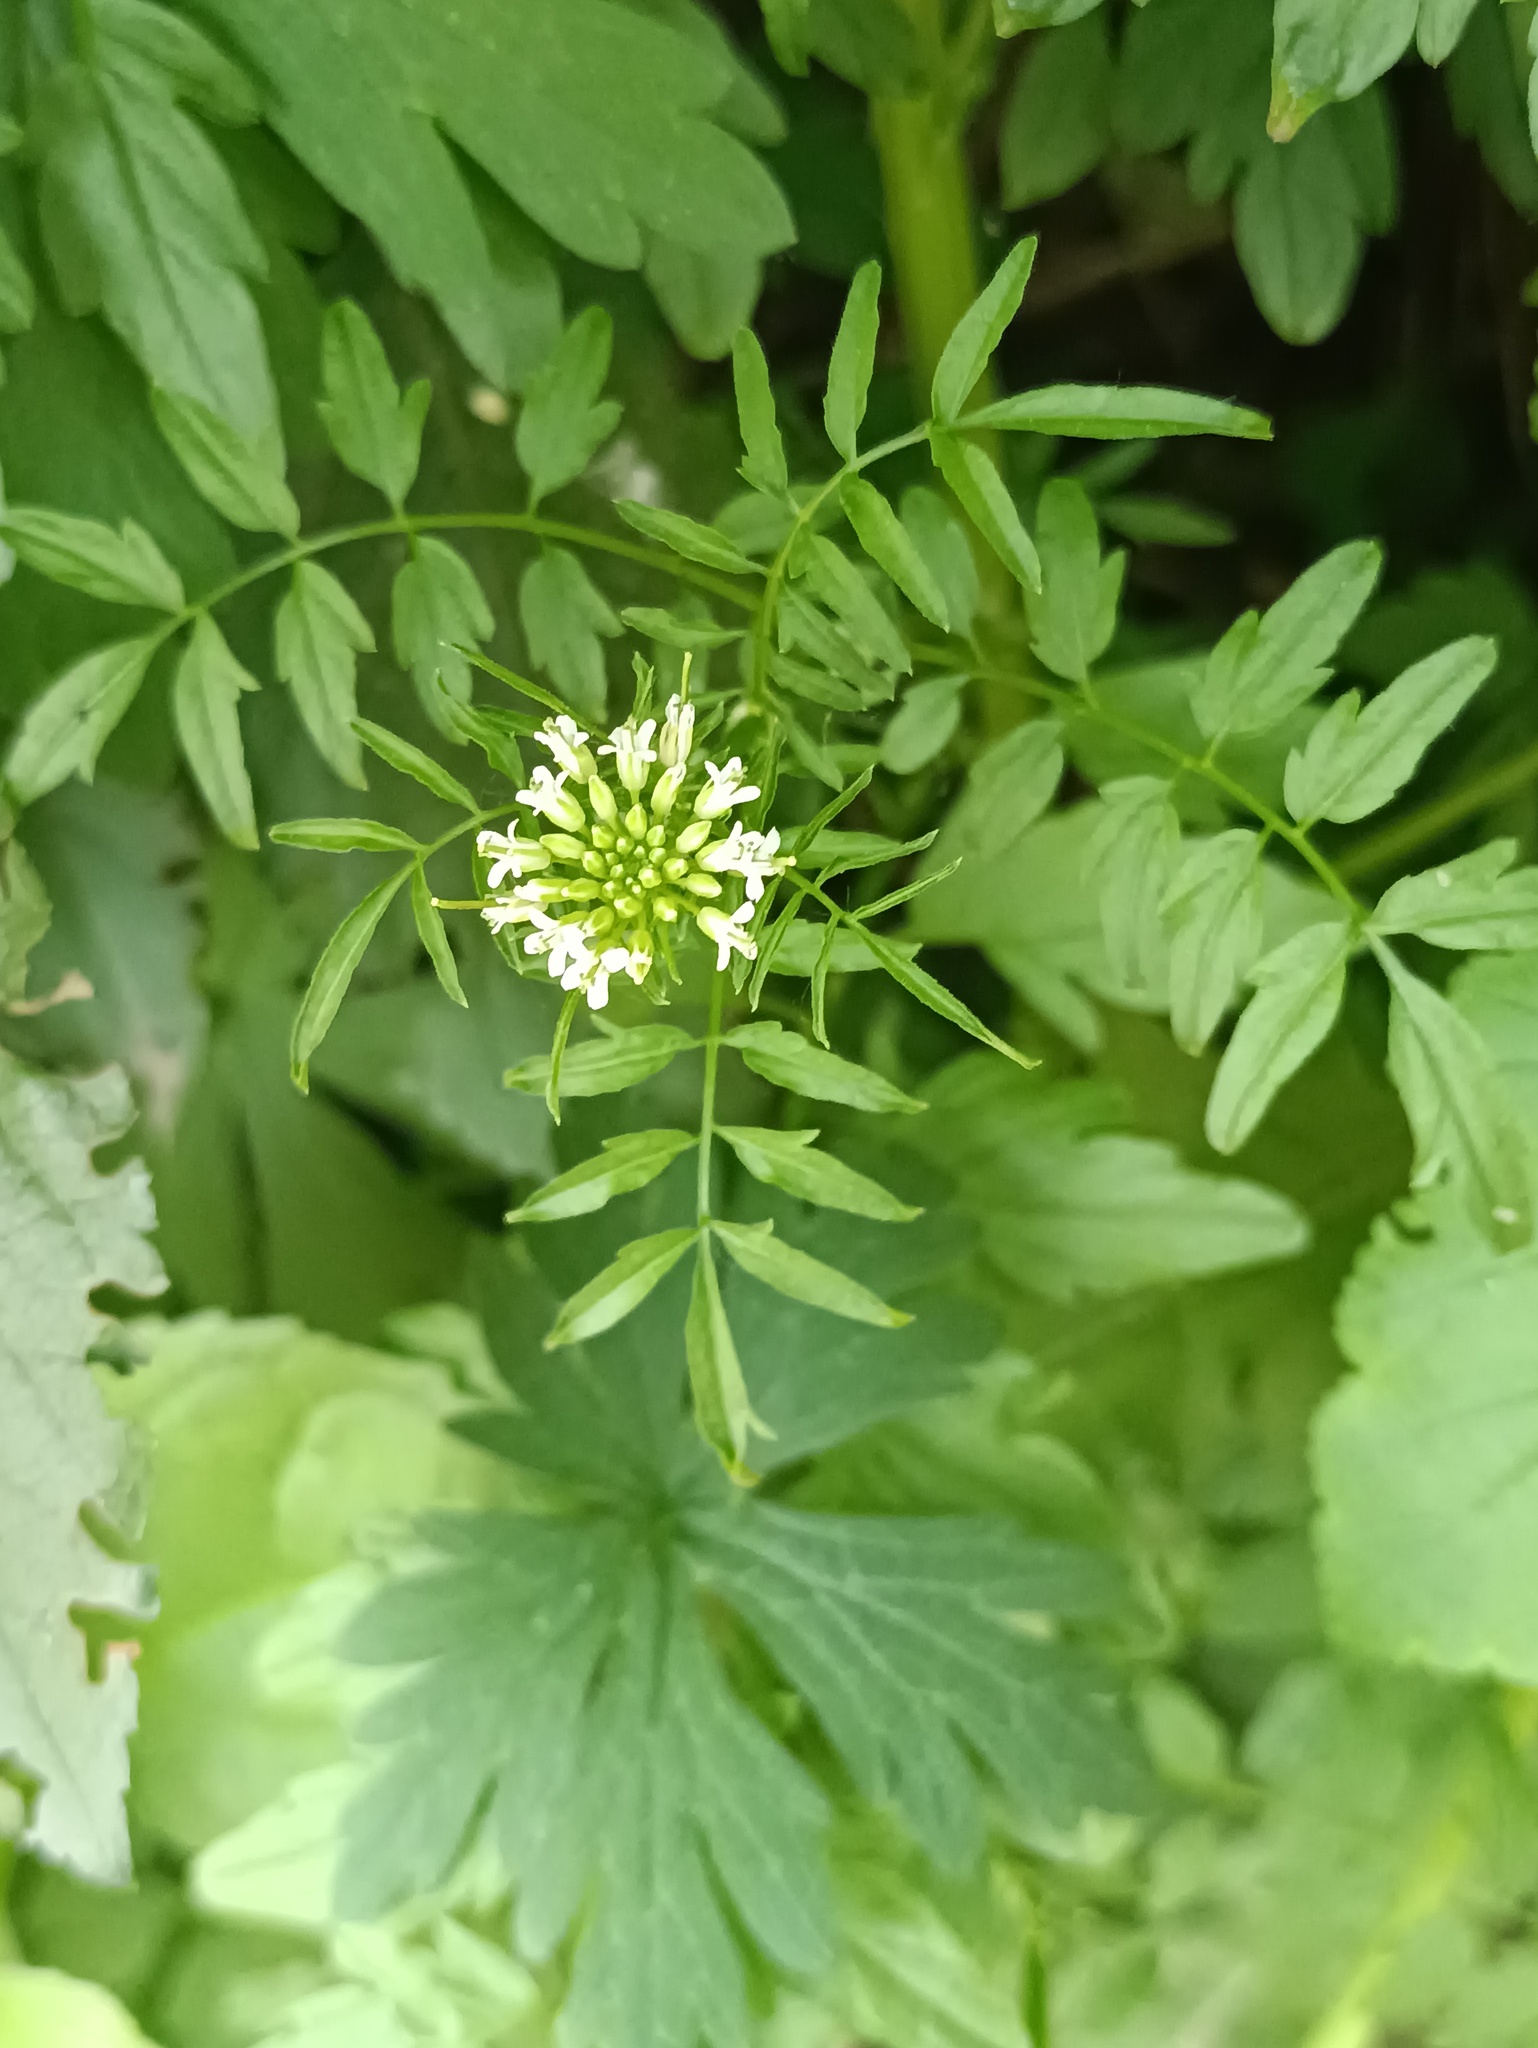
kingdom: Plantae
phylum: Tracheophyta
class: Magnoliopsida
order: Brassicales
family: Brassicaceae
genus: Cardamine
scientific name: Cardamine impatiens
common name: Narrow-leaved bitter-cress
